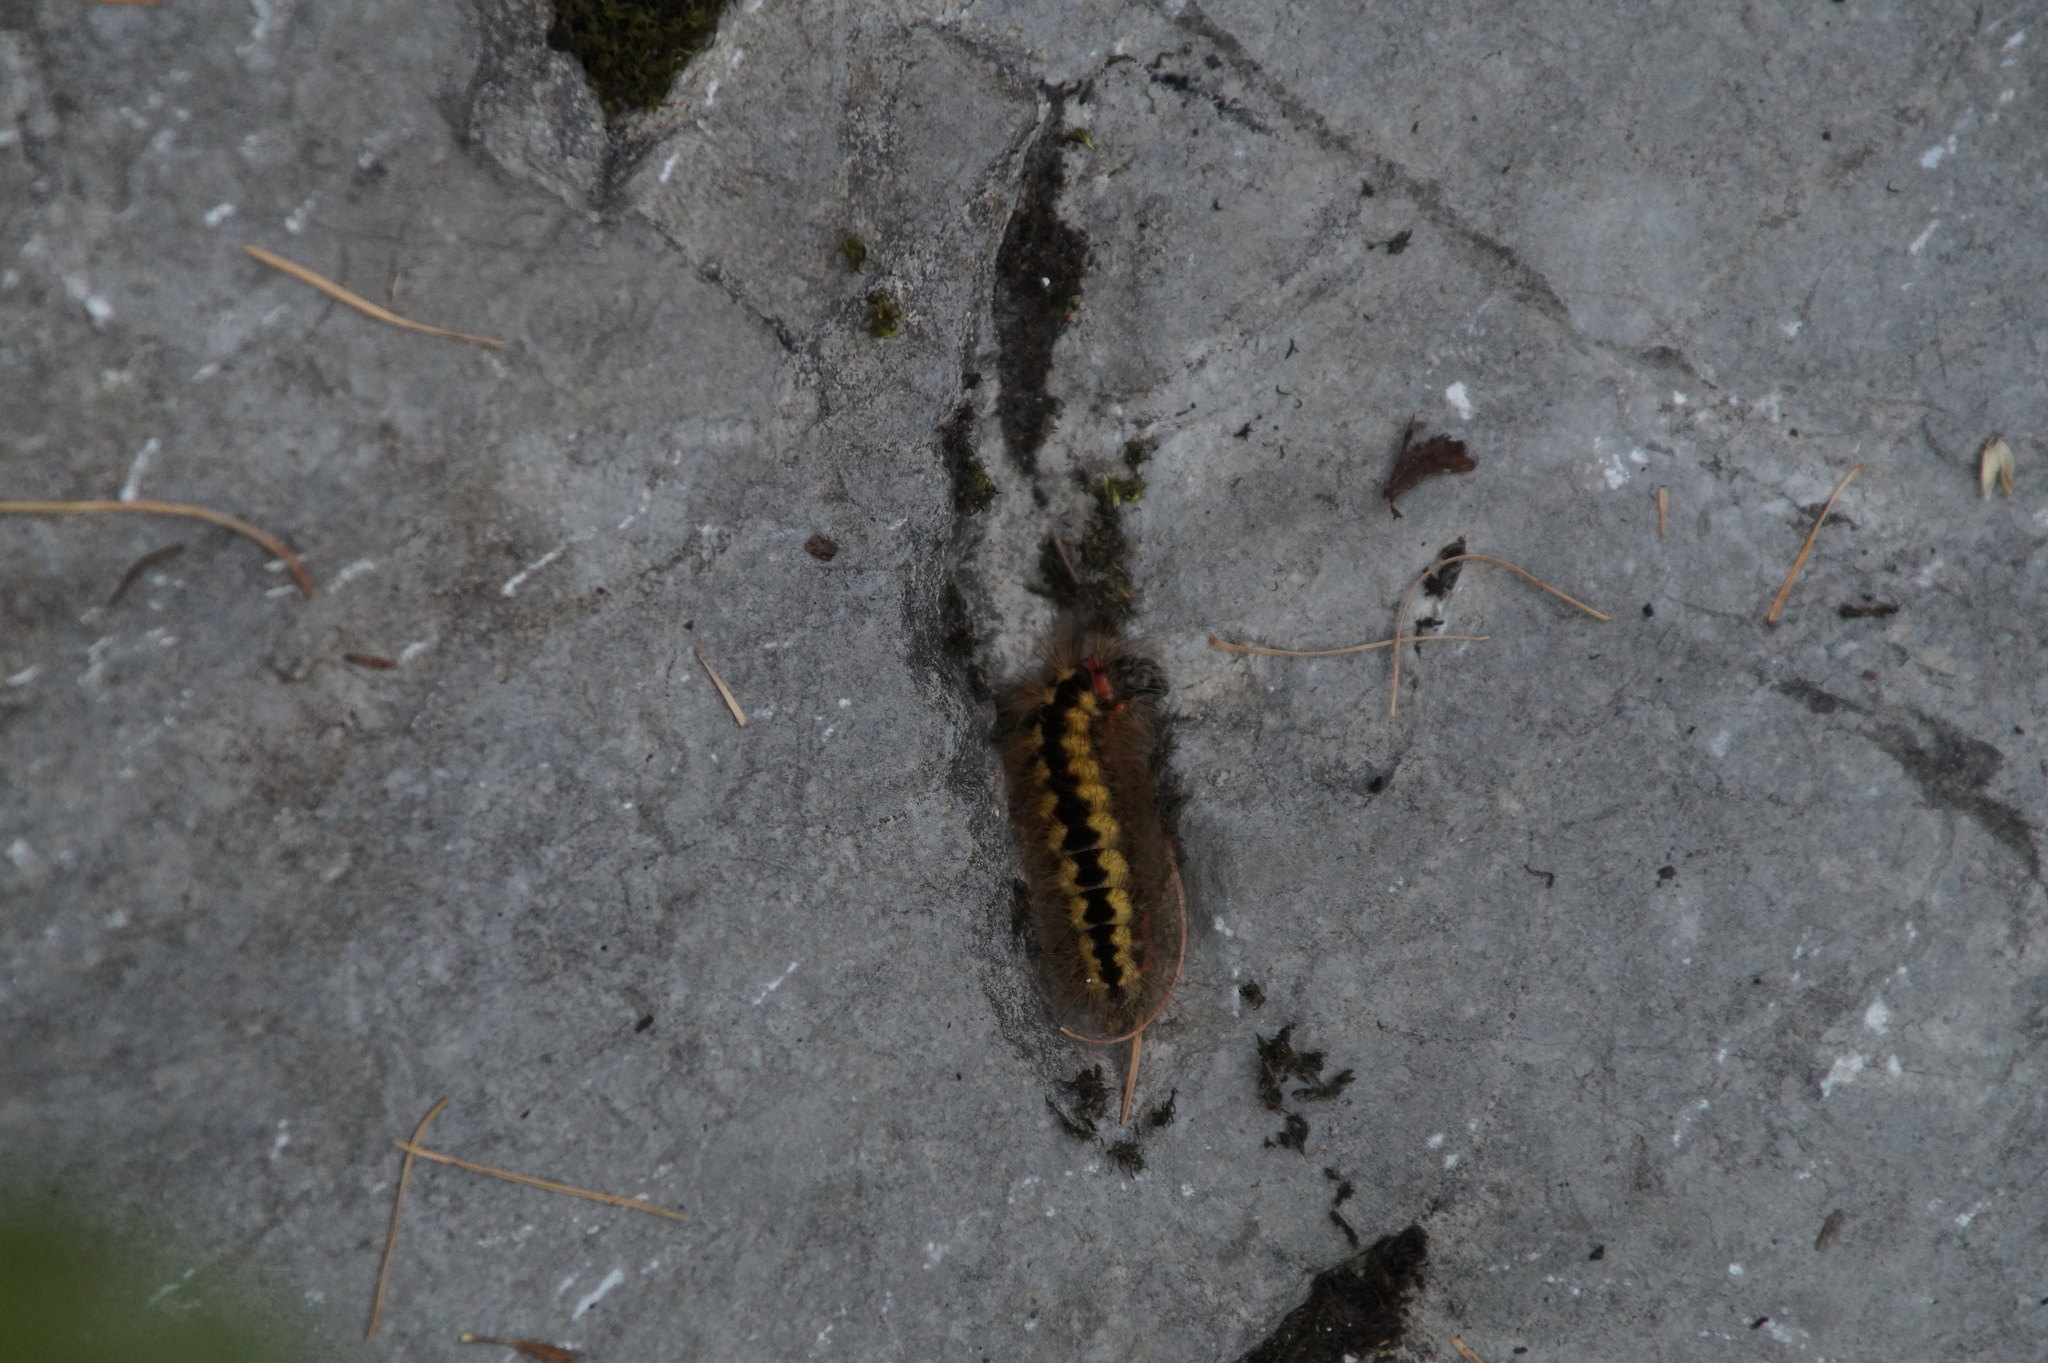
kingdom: Animalia
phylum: Arthropoda
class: Insecta
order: Lepidoptera
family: Noctuidae
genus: Acronicta
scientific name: Acronicta euphorbiae
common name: Sweet gale moth
